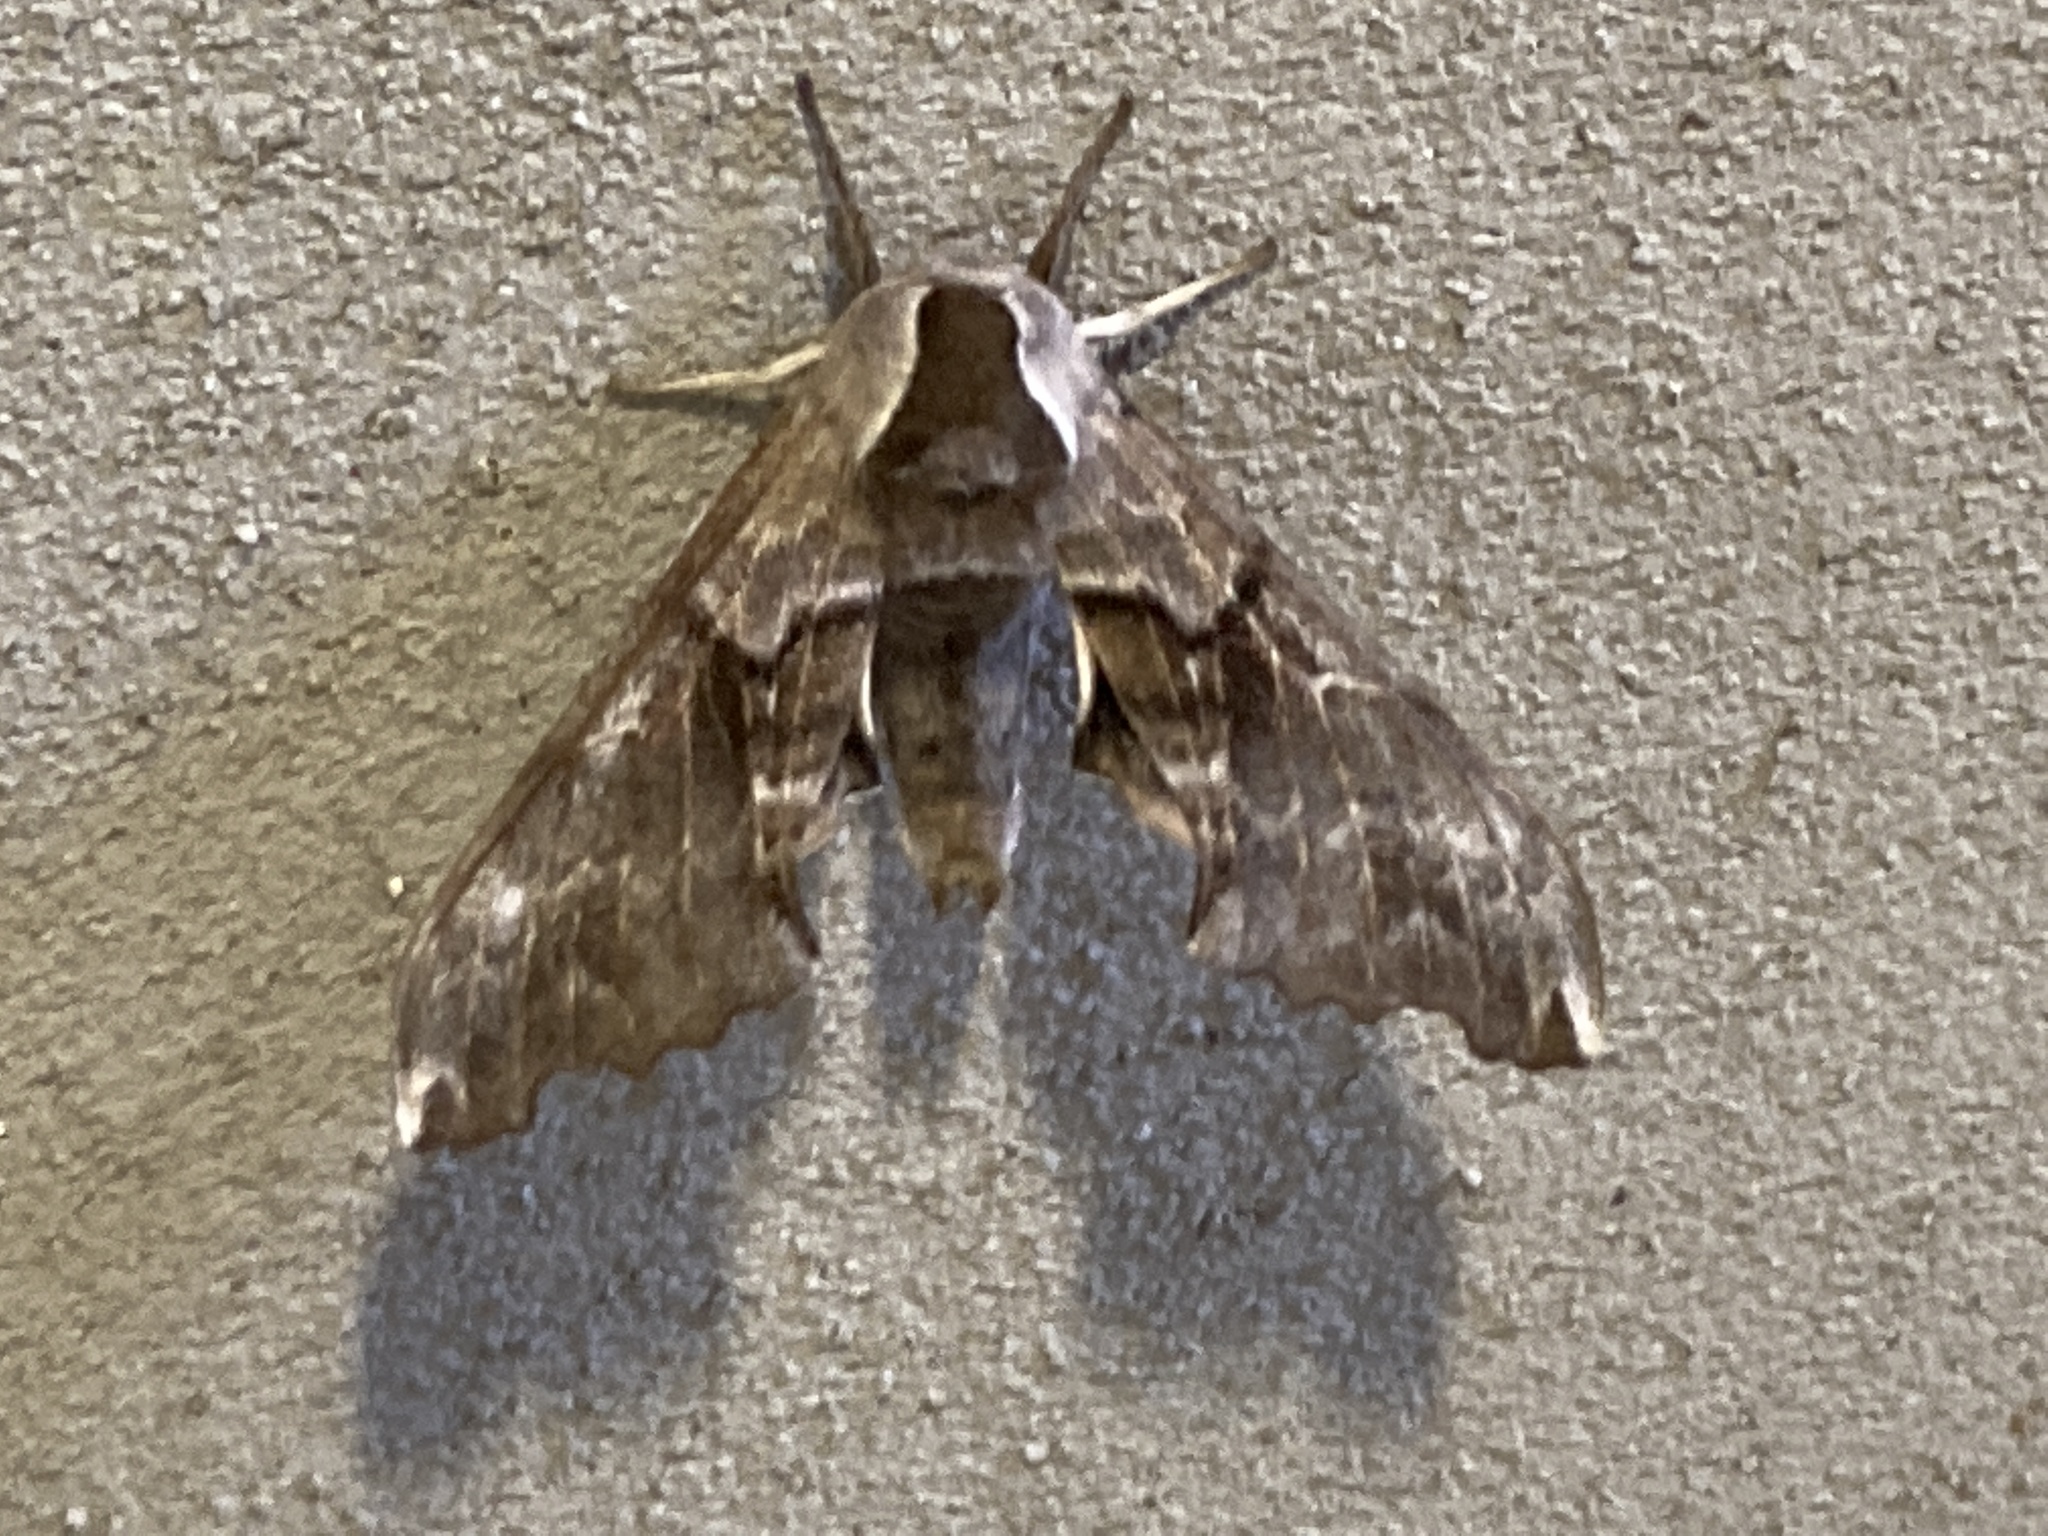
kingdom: Animalia
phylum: Arthropoda
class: Insecta
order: Lepidoptera
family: Sphingidae
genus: Smerinthus
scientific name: Smerinthus cerisyi
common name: Cerisy's sphinx moth
